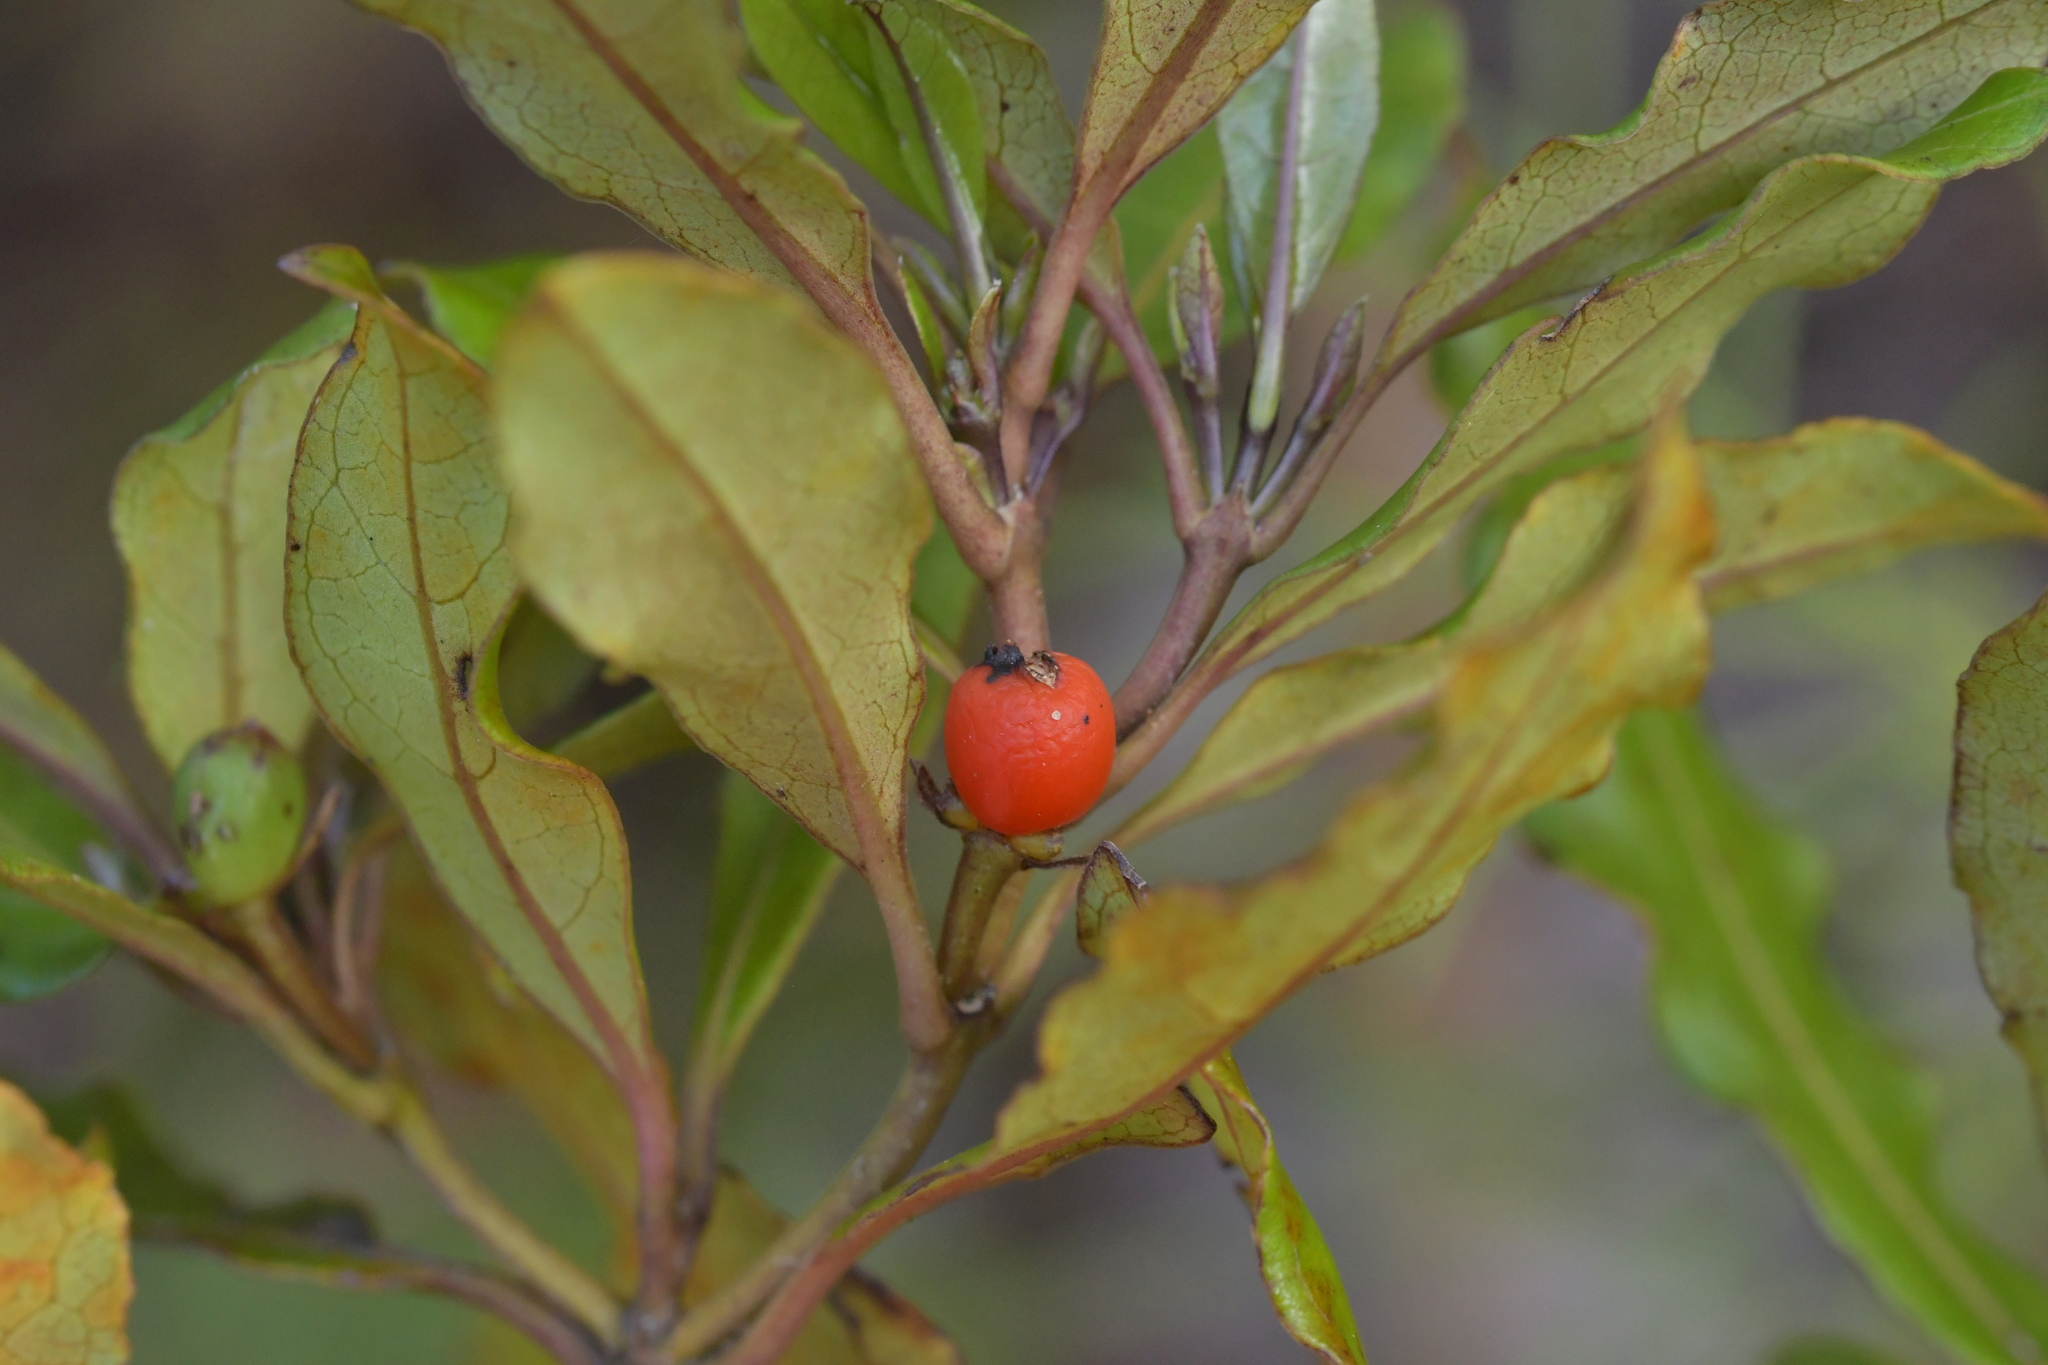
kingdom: Plantae
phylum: Tracheophyta
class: Magnoliopsida
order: Gentianales
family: Rubiaceae
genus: Coprosma
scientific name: Coprosma dodonaeifolia
